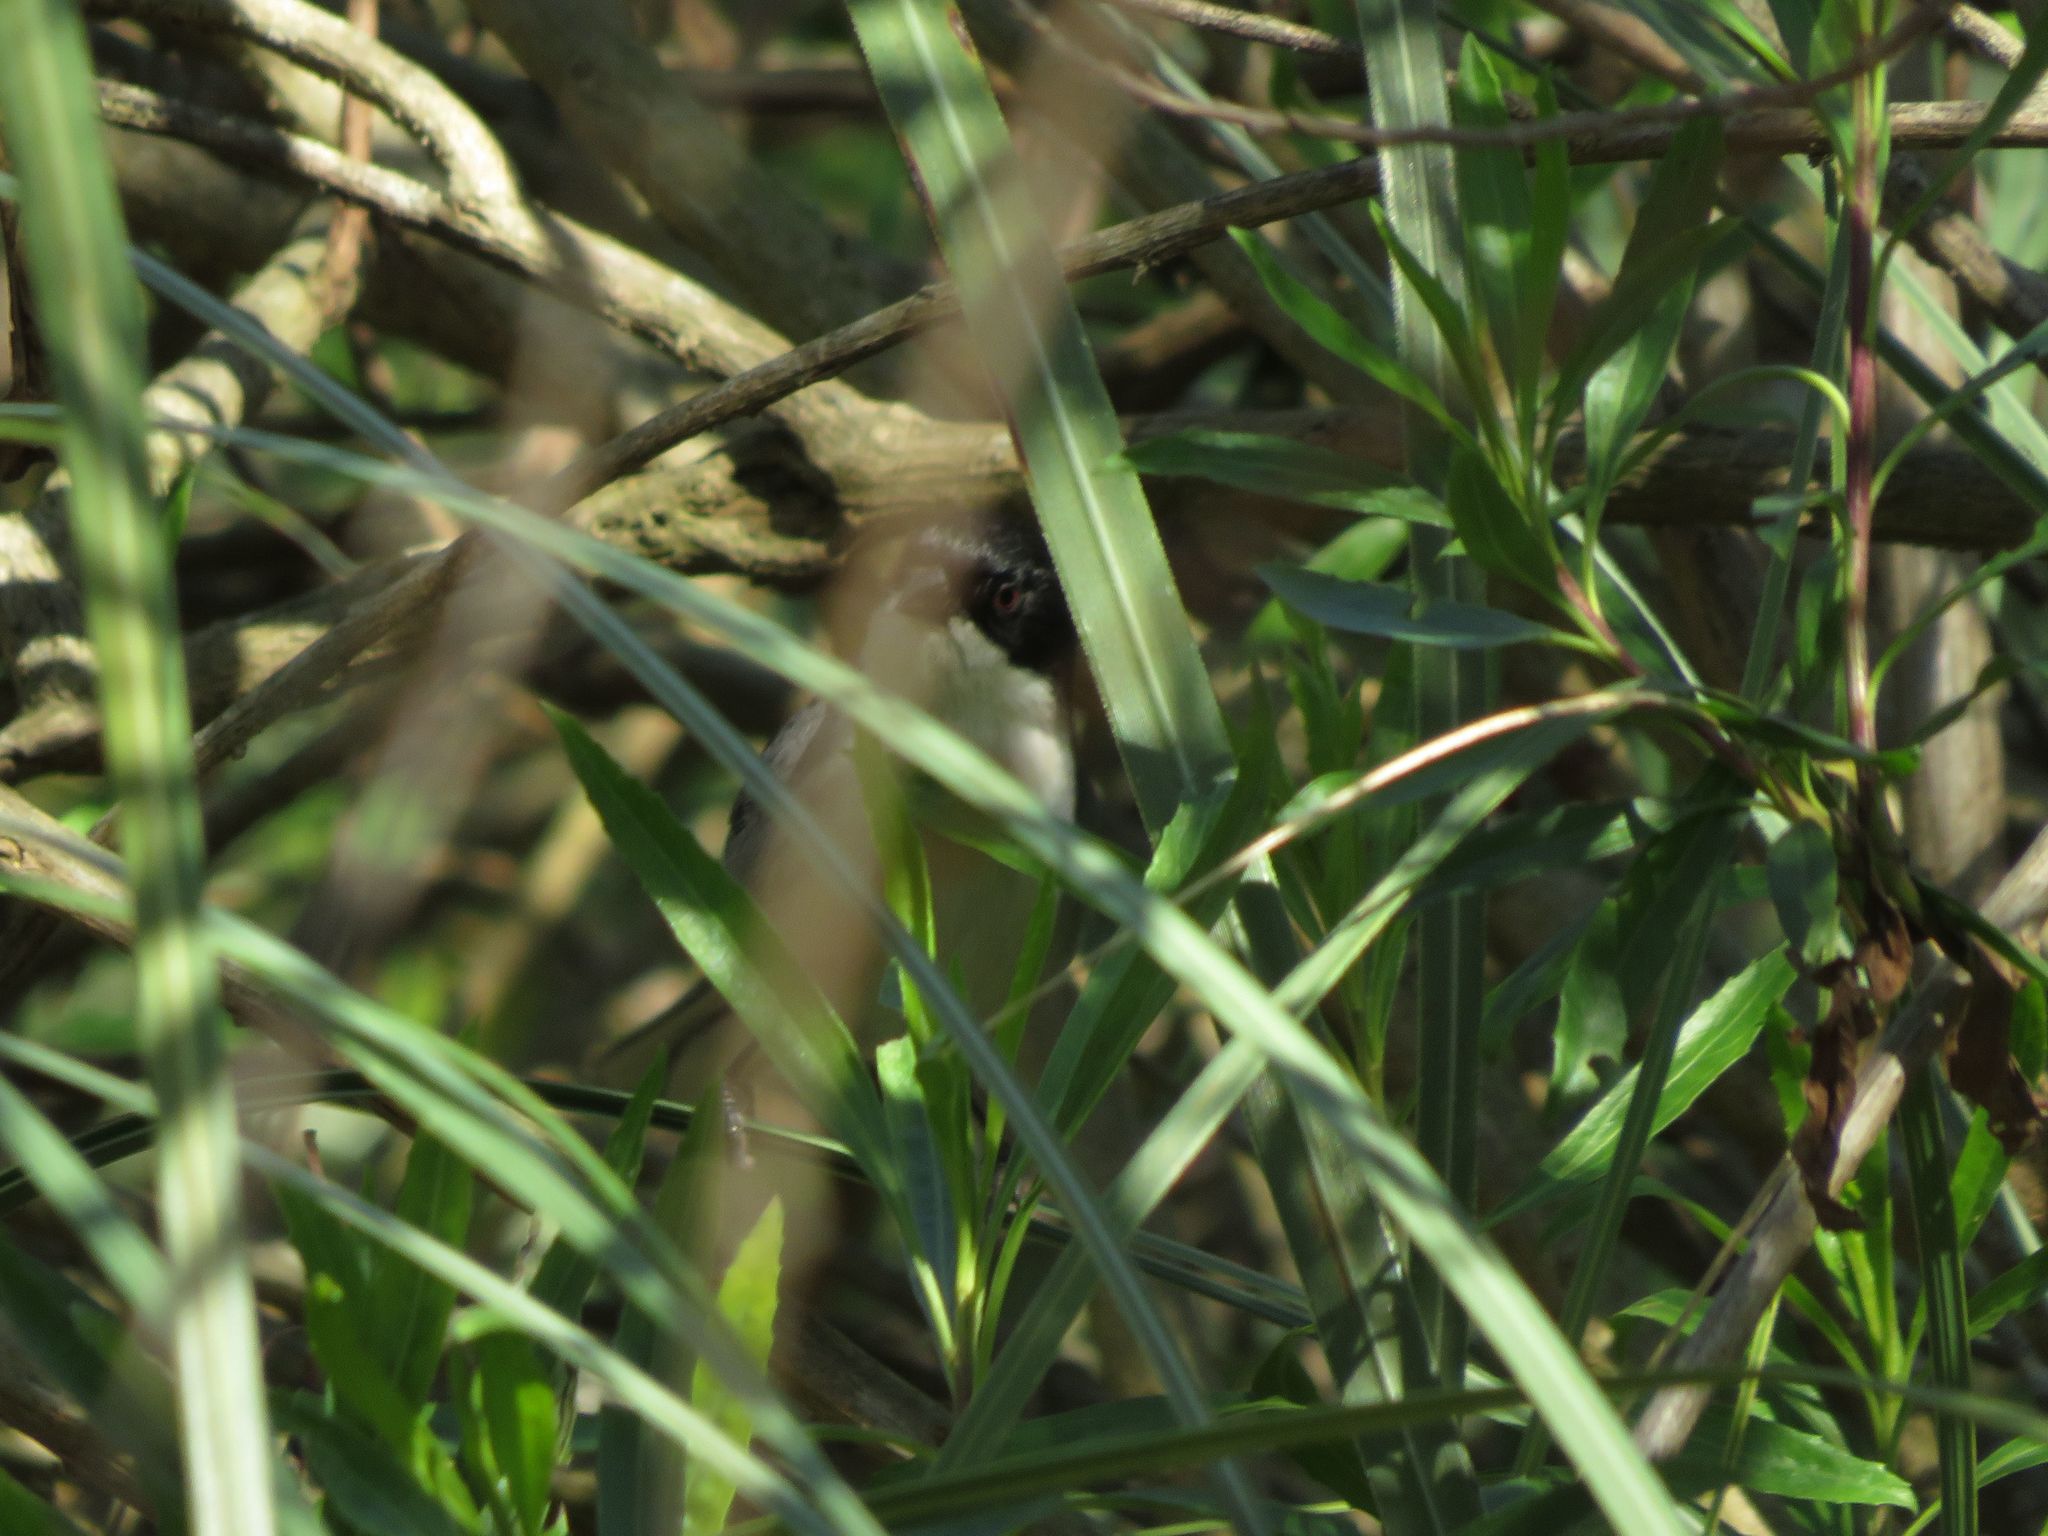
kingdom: Animalia
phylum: Chordata
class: Aves
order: Passeriformes
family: Thraupidae
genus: Microspingus
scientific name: Microspingus melanoleucus
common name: Black-capped warbling-finch
